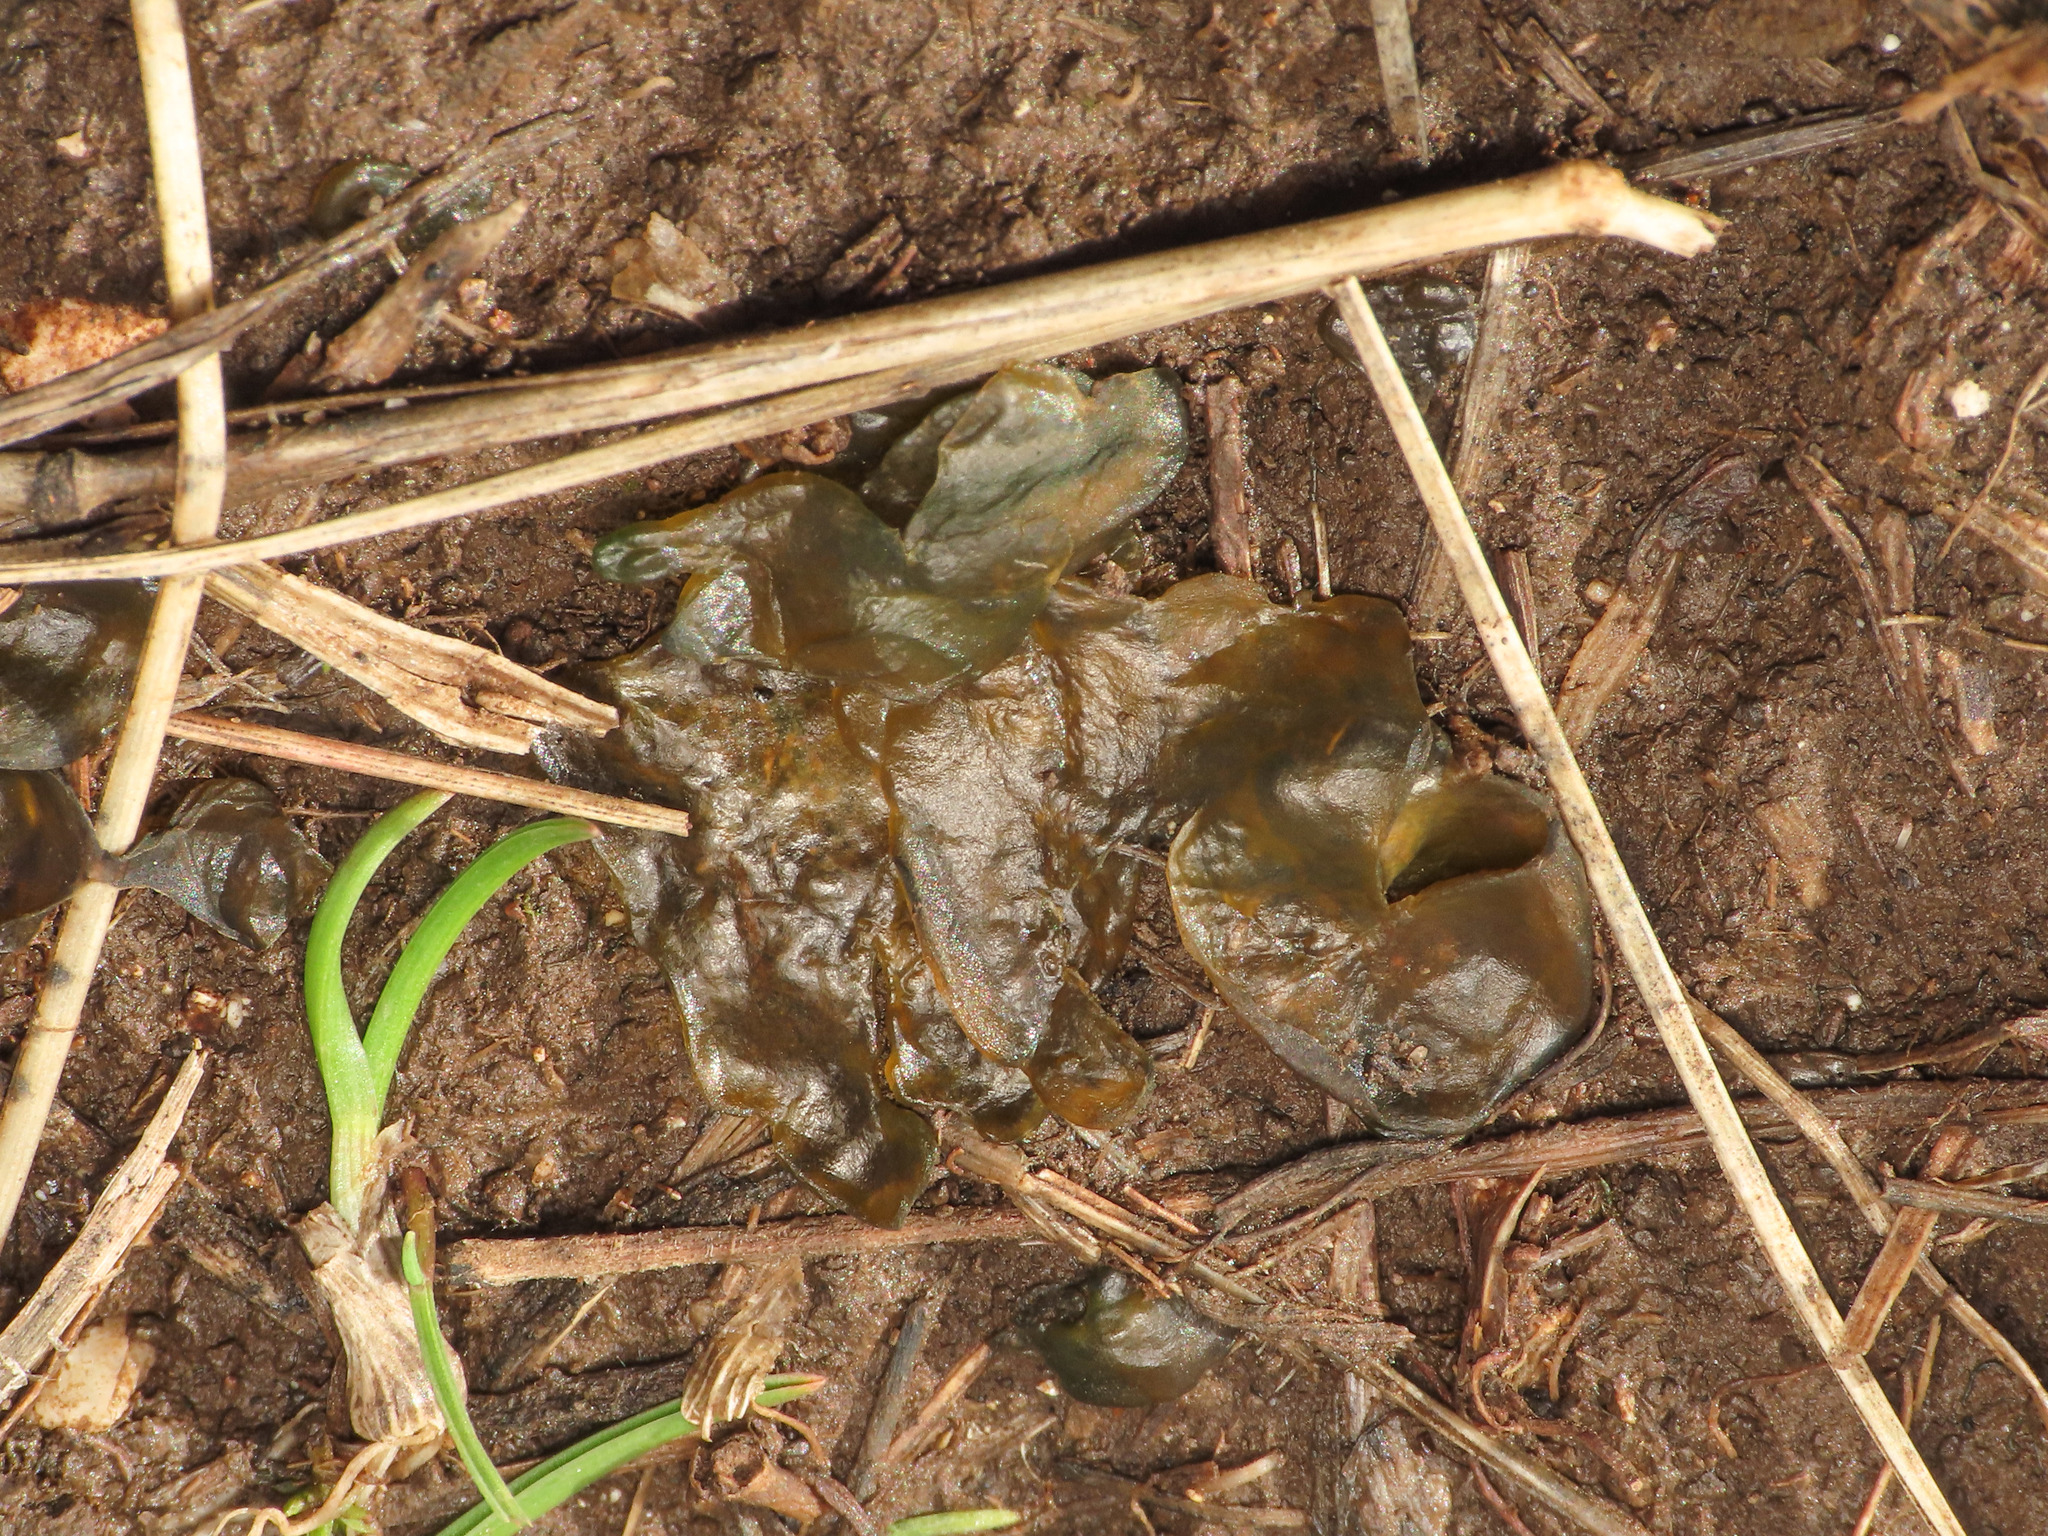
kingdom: Bacteria
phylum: Cyanobacteria
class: Cyanobacteriia
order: Cyanobacteriales
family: Nostocaceae
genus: Nostoc
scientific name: Nostoc commune
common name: Star jelly
